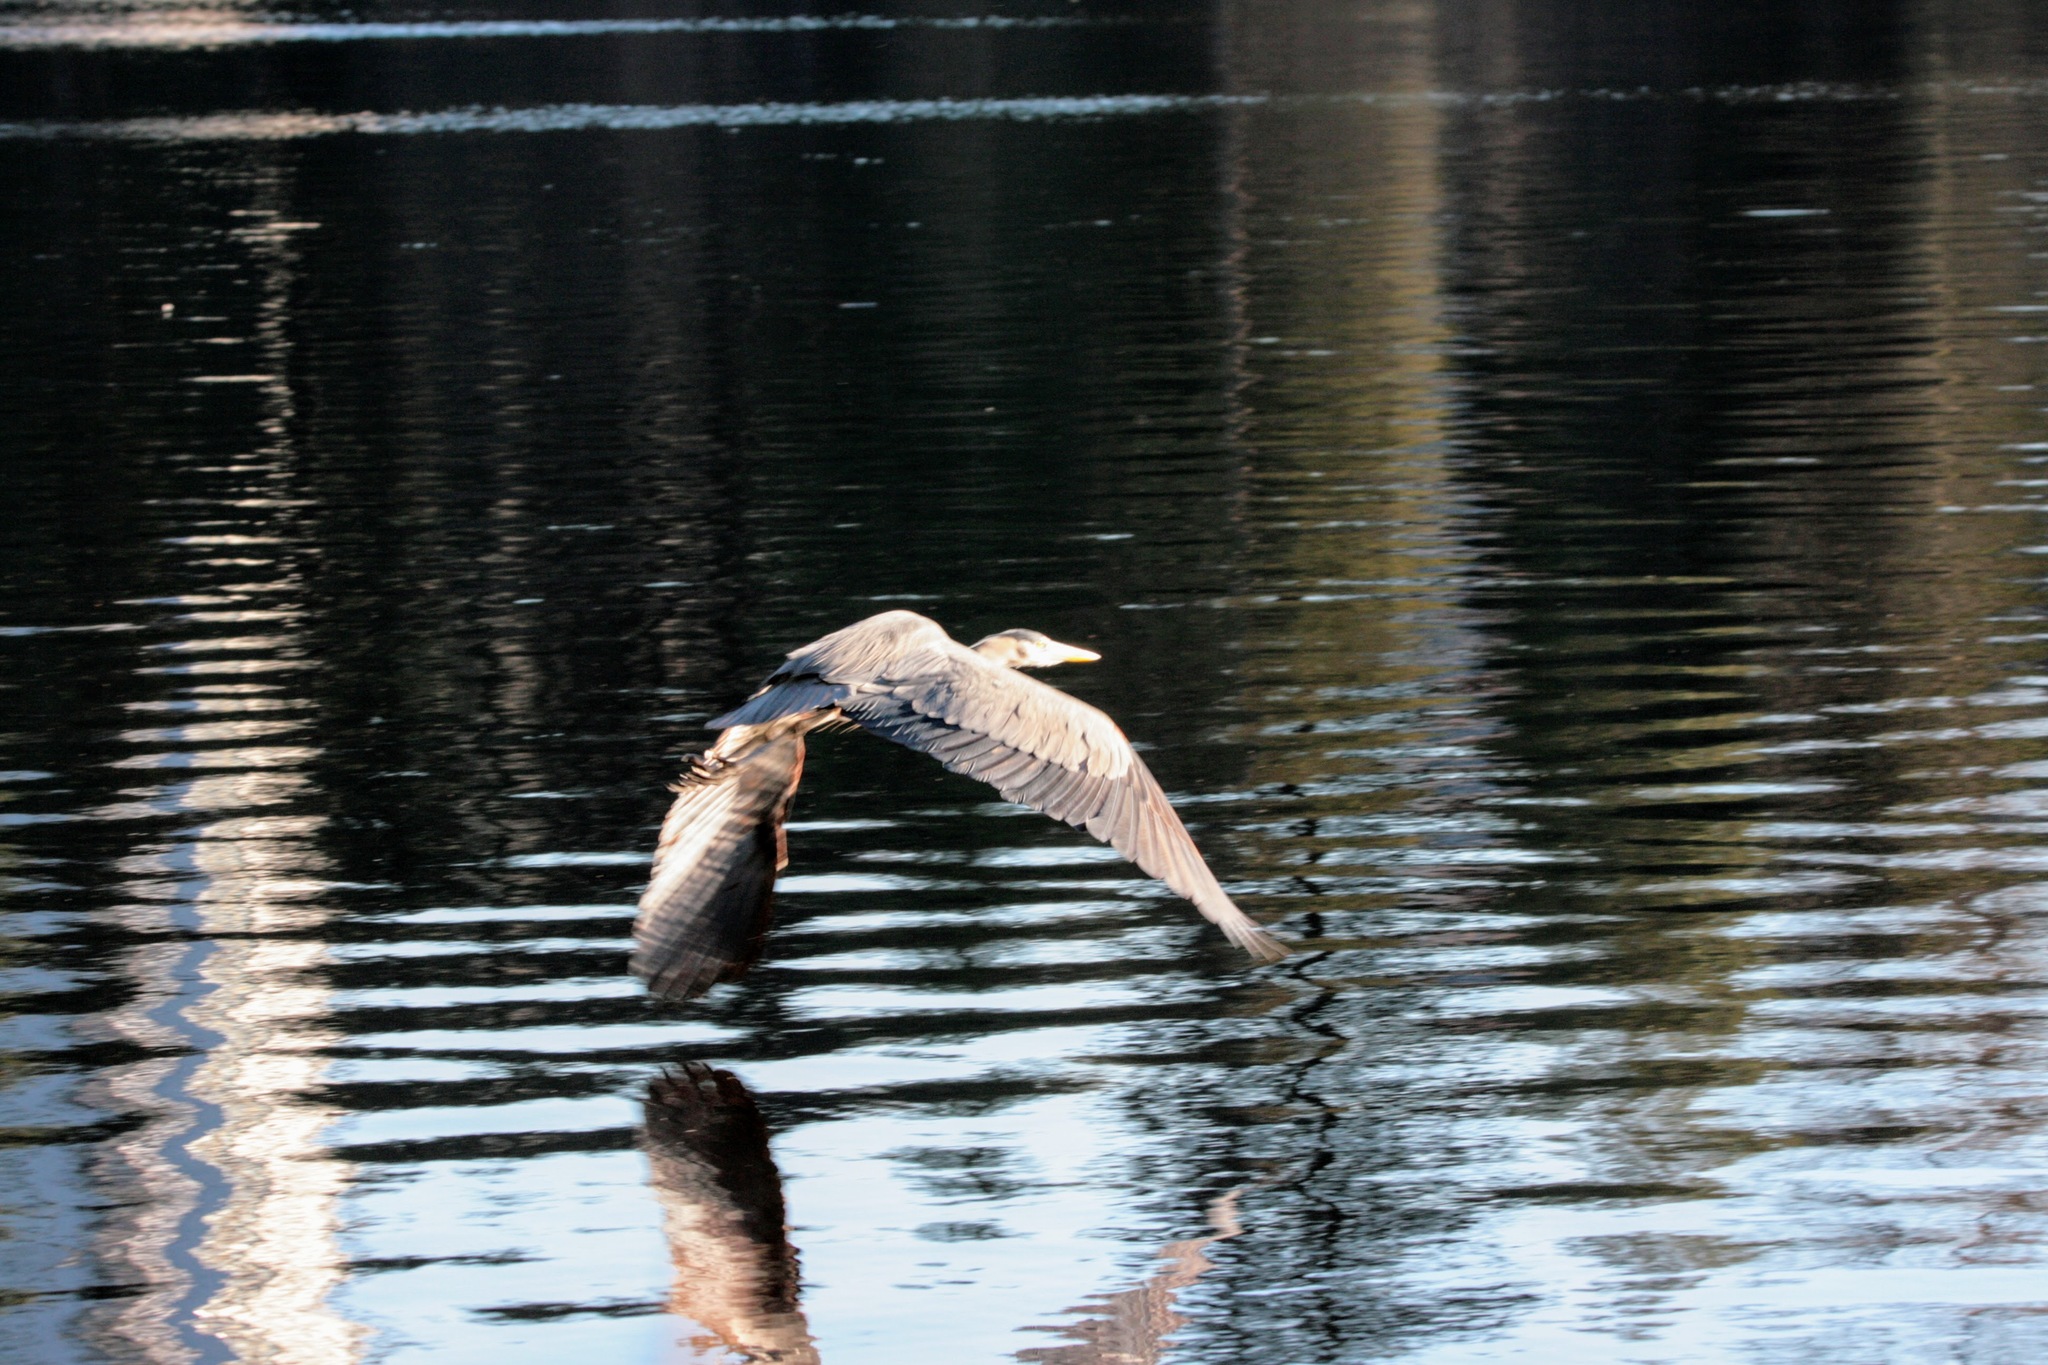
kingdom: Animalia
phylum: Chordata
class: Aves
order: Pelecaniformes
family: Ardeidae
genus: Ardea
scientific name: Ardea herodias
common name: Great blue heron
